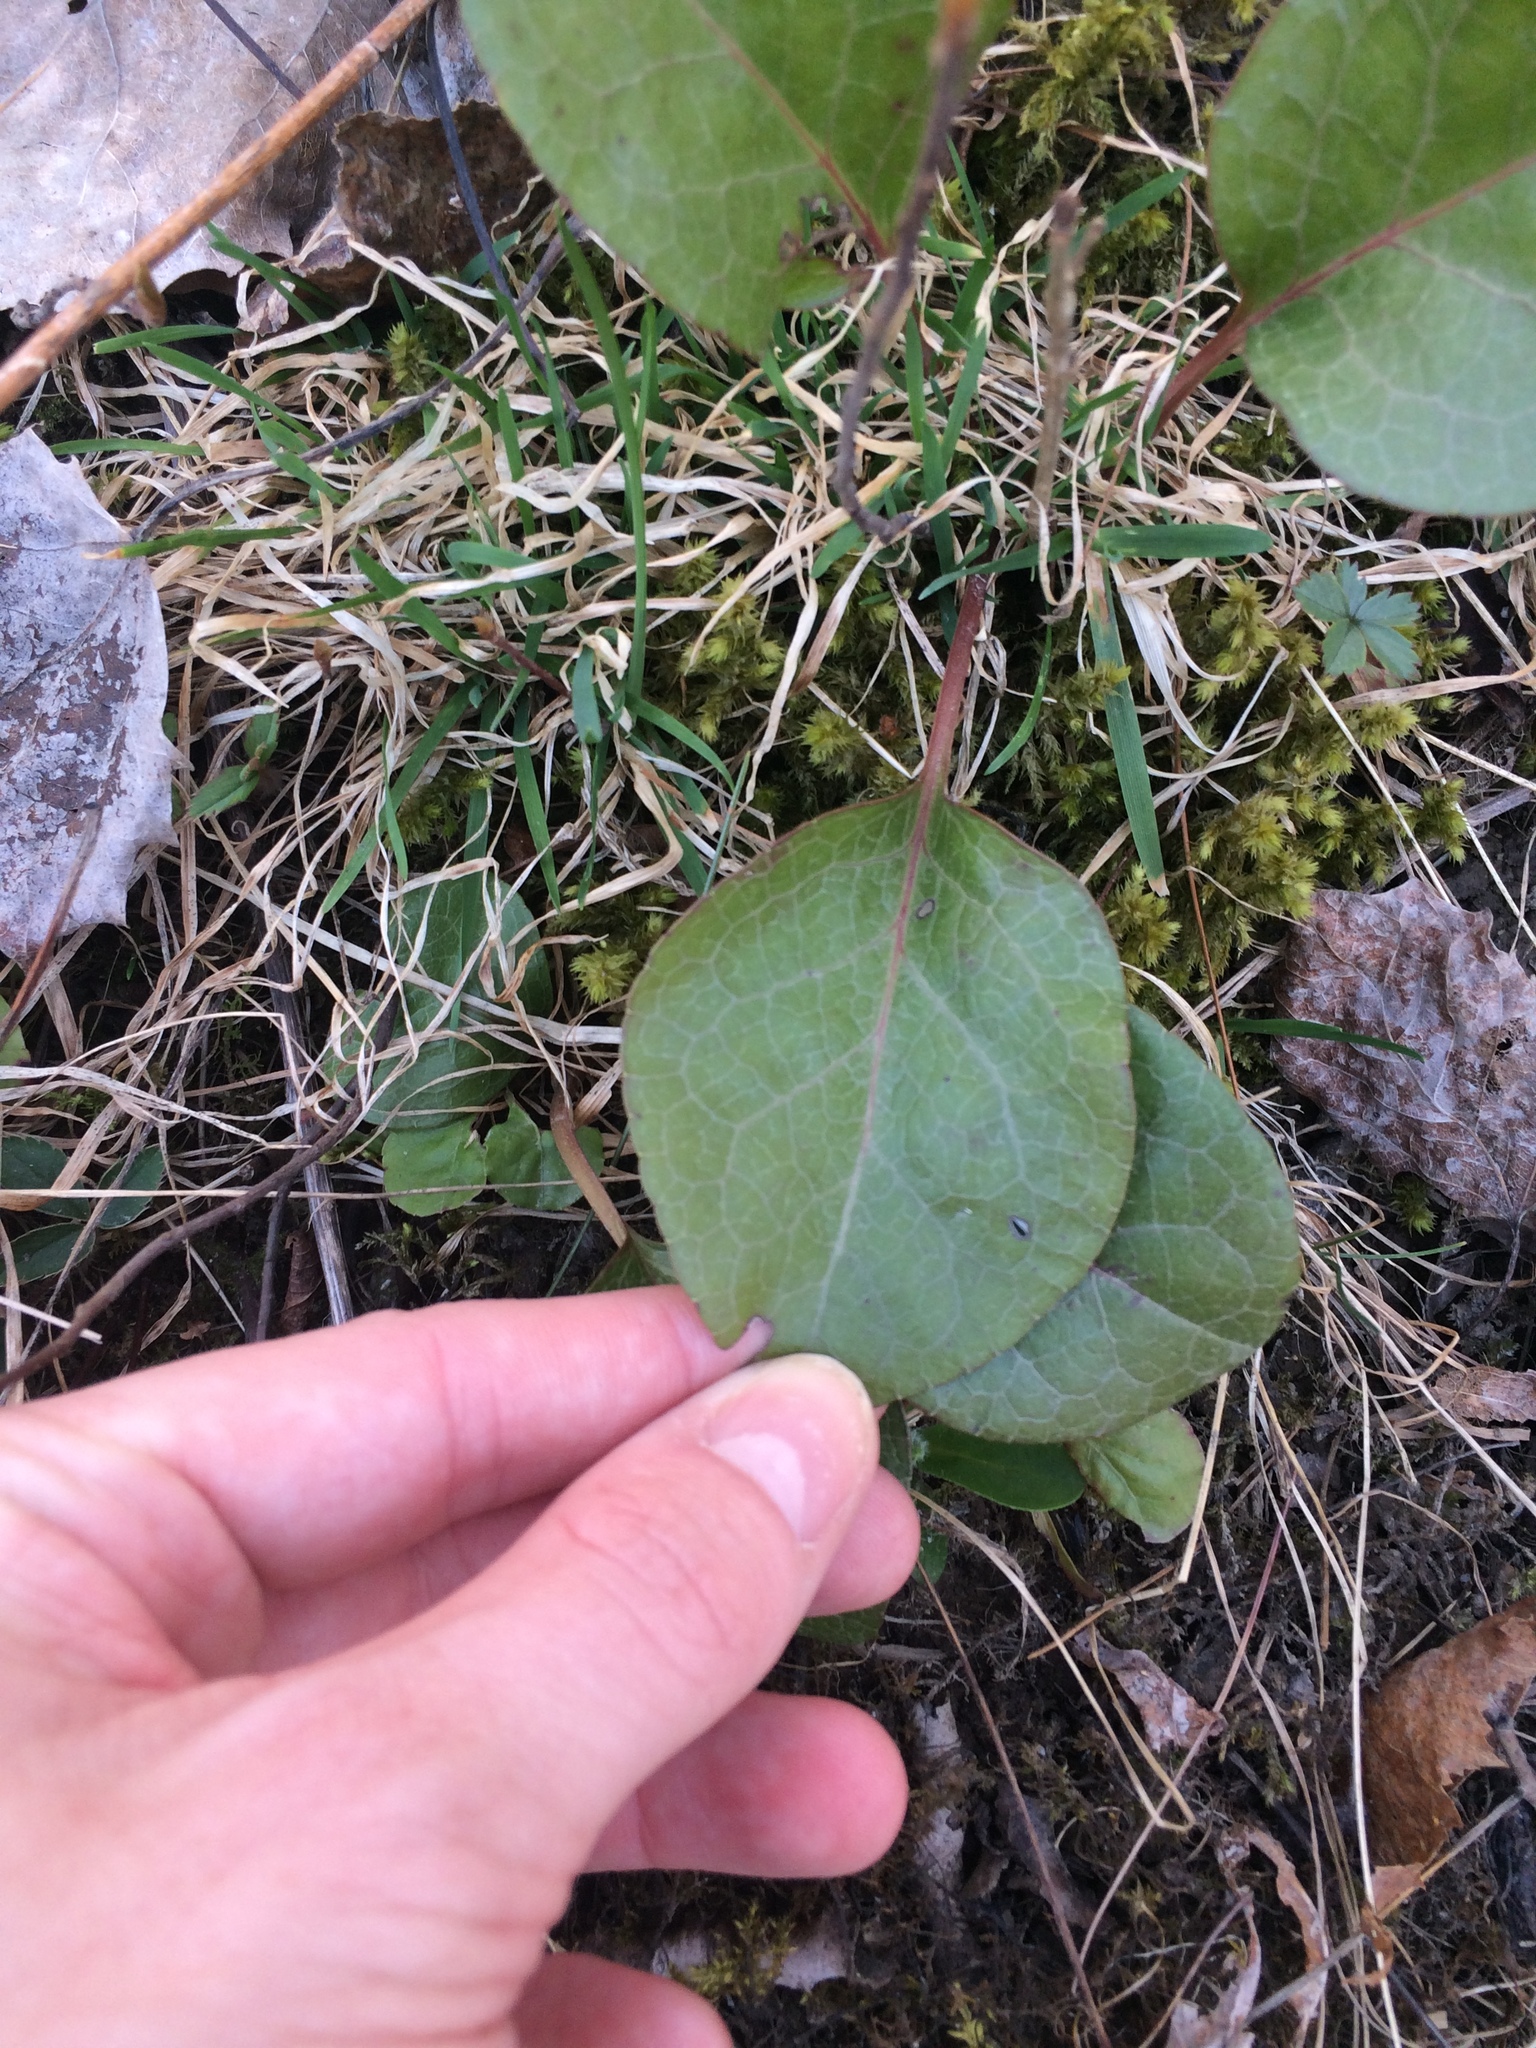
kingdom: Plantae
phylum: Tracheophyta
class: Magnoliopsida
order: Ericales
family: Ericaceae
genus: Pyrola
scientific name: Pyrola americana
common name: American wintergreen
